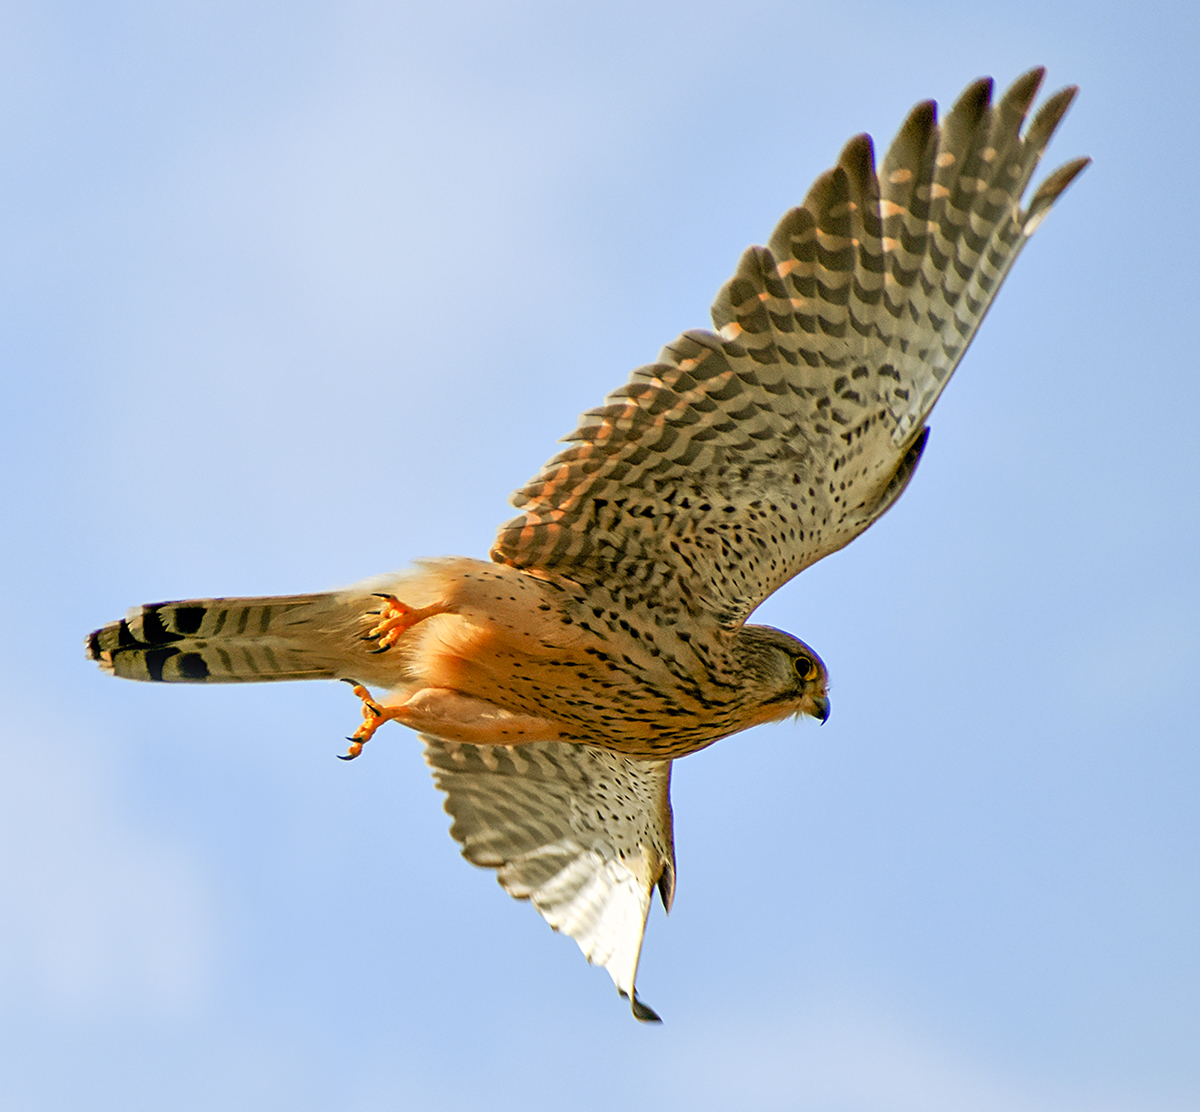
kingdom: Animalia
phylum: Chordata
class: Aves
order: Falconiformes
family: Falconidae
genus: Falco
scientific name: Falco tinnunculus
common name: Common kestrel
